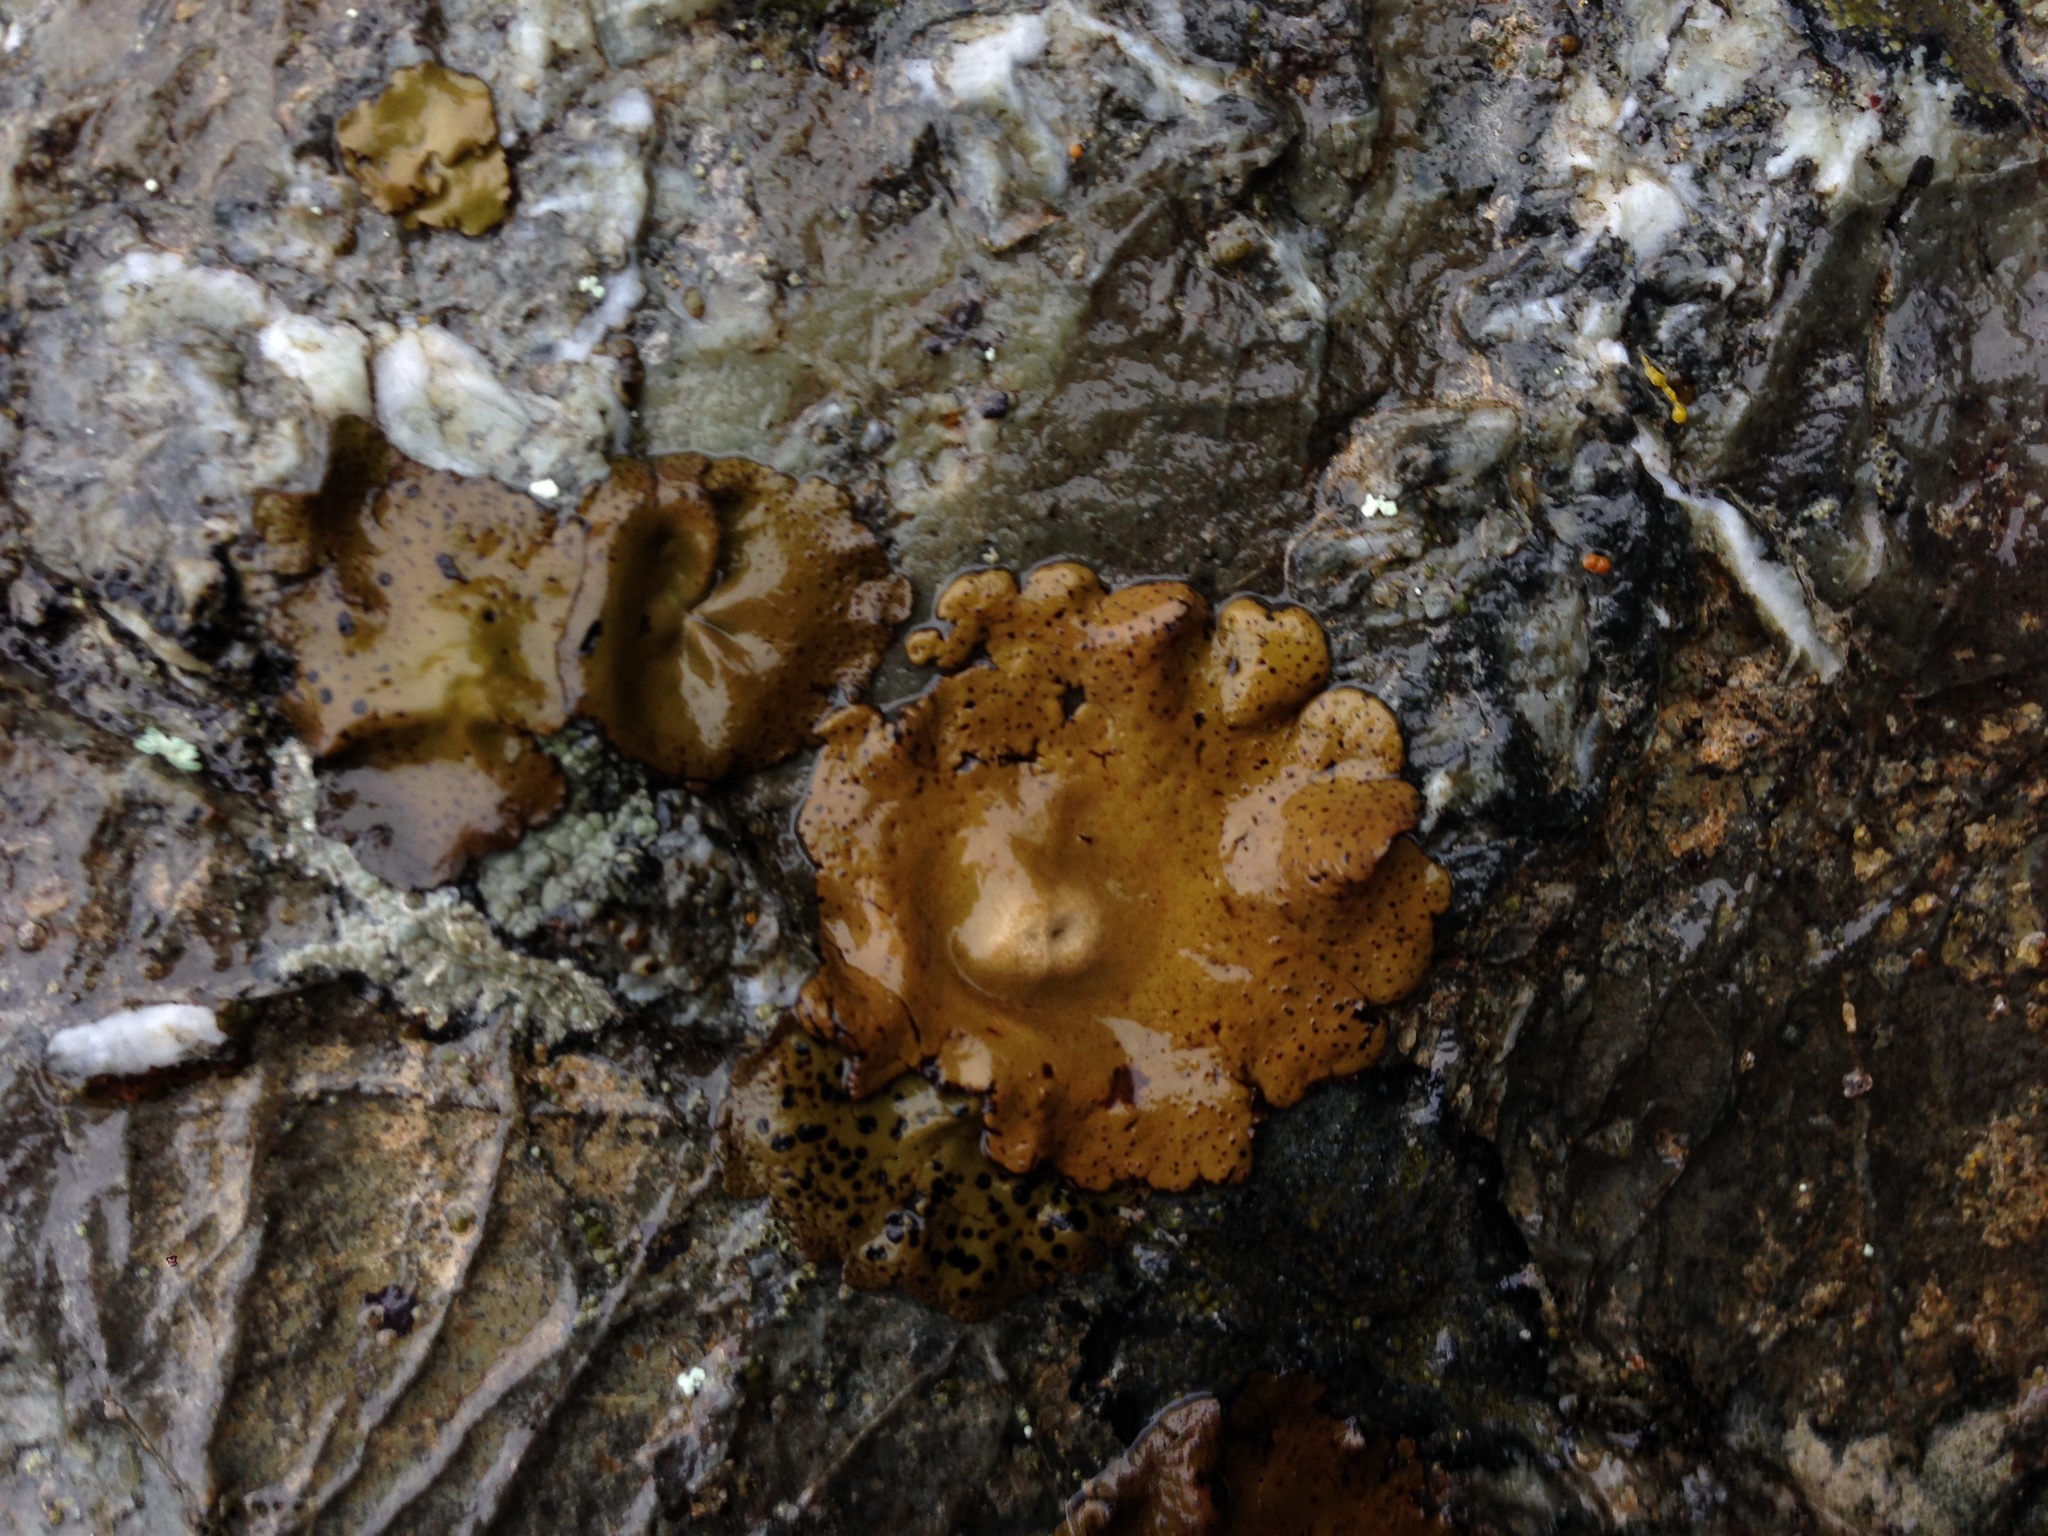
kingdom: Fungi
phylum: Ascomycota
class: Lecanoromycetes
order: Umbilicariales
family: Umbilicariaceae
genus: Umbilicaria
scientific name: Umbilicaria phaea
